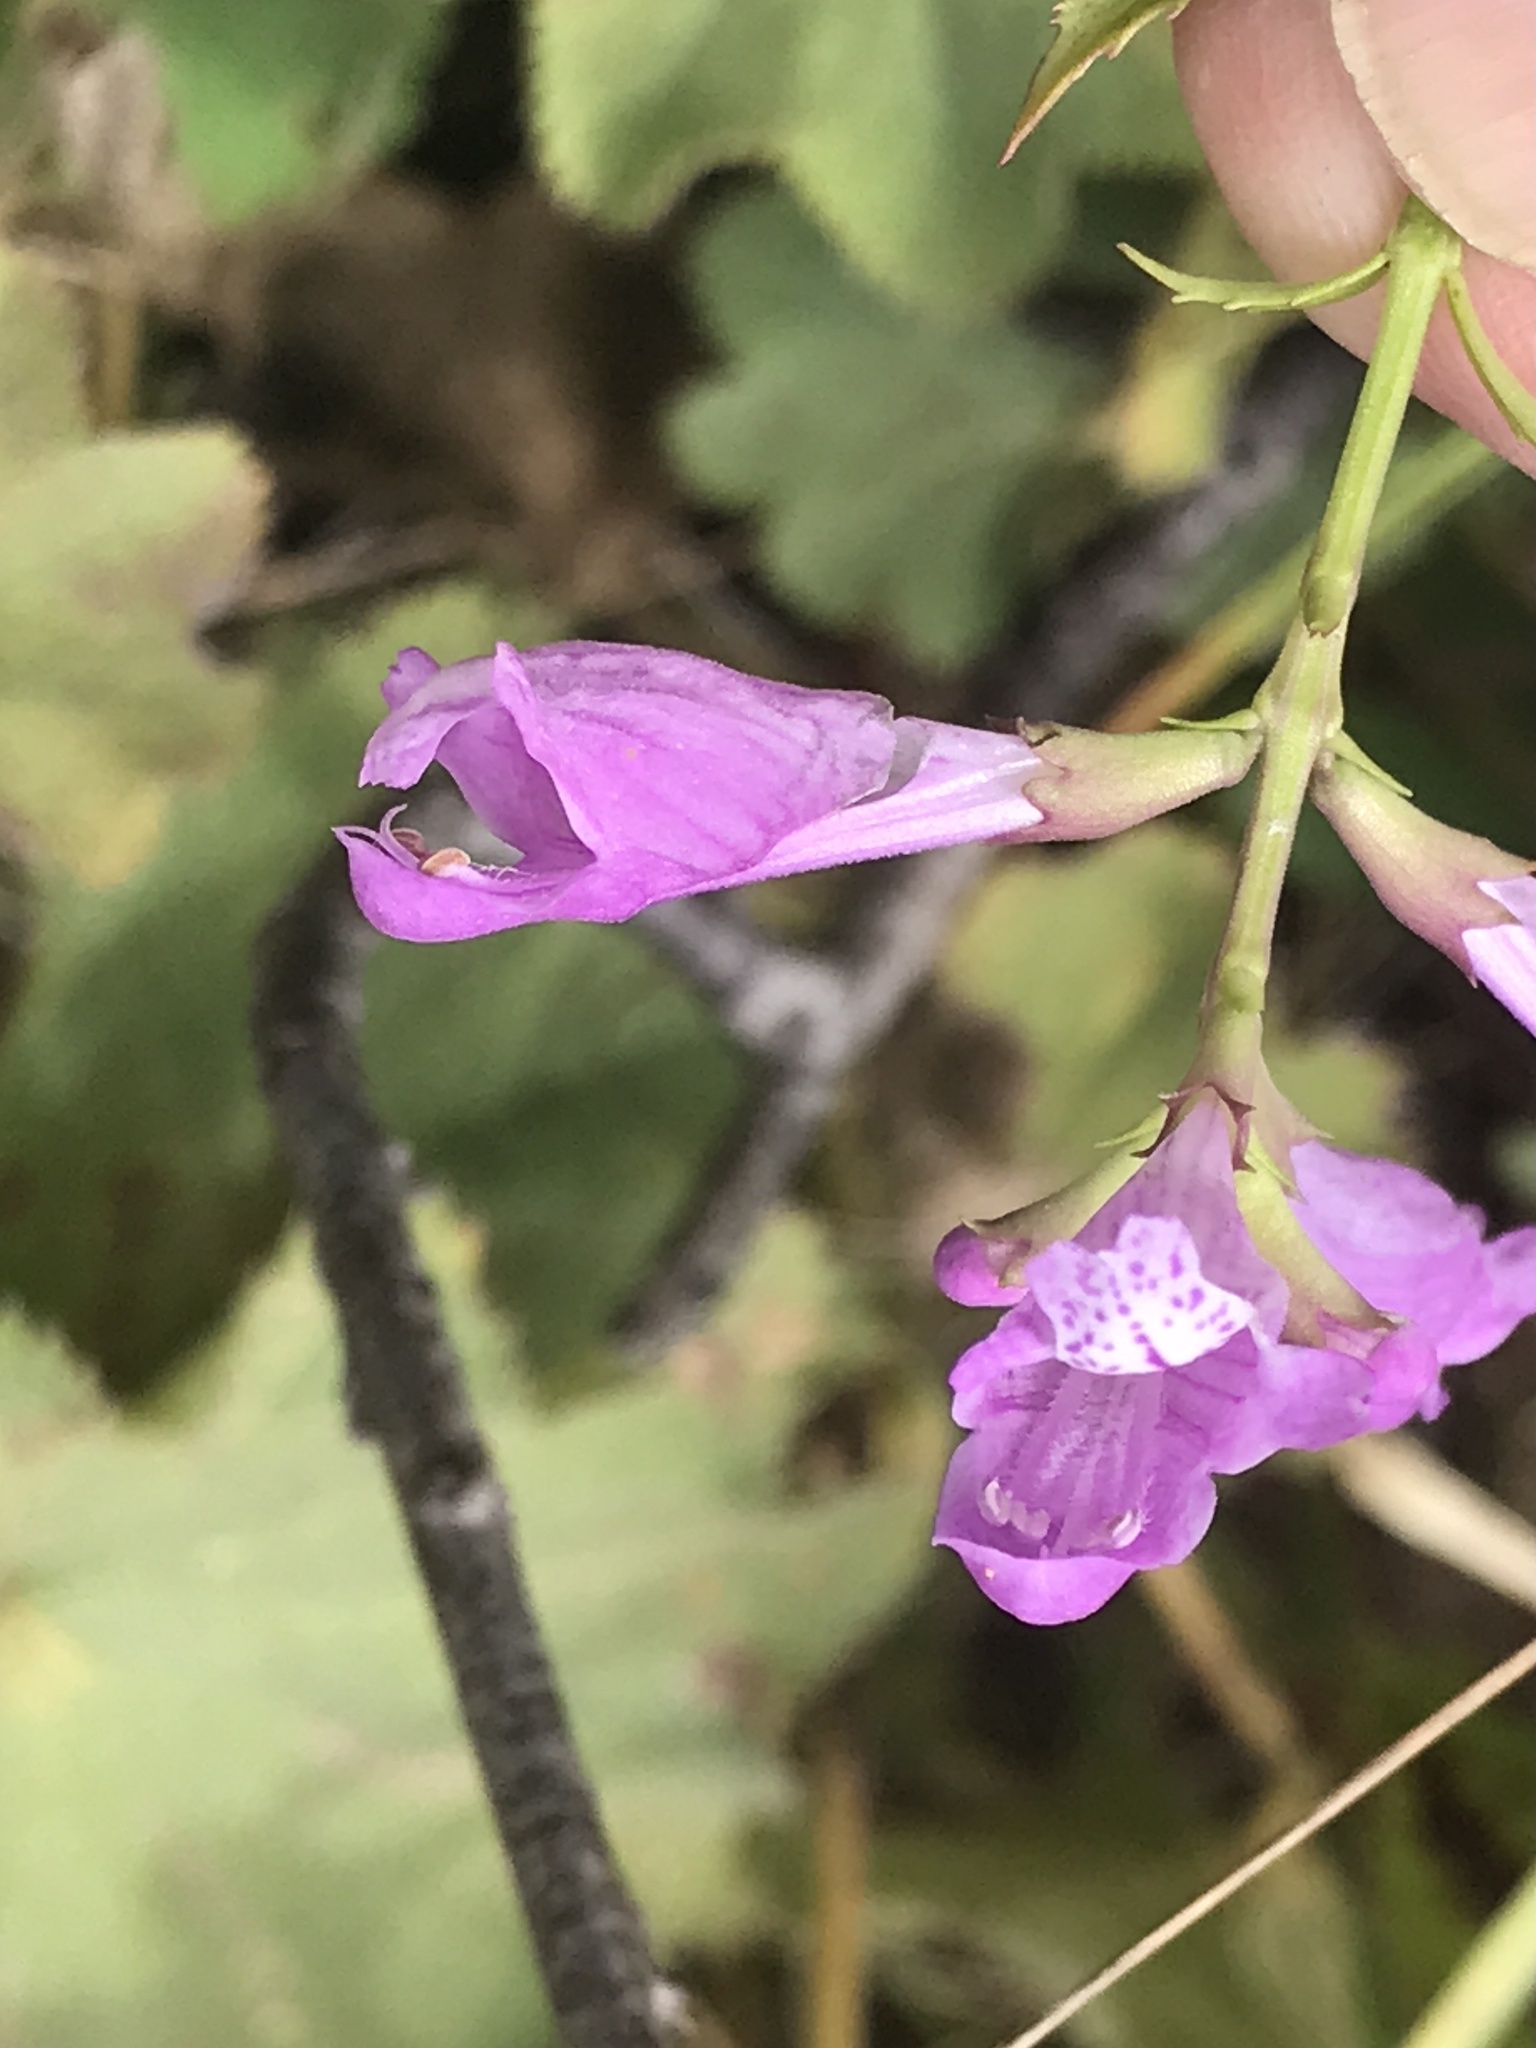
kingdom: Plantae
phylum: Tracheophyta
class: Magnoliopsida
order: Lamiales
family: Lamiaceae
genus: Physostegia
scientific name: Physostegia virginiana
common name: Obedient-plant
